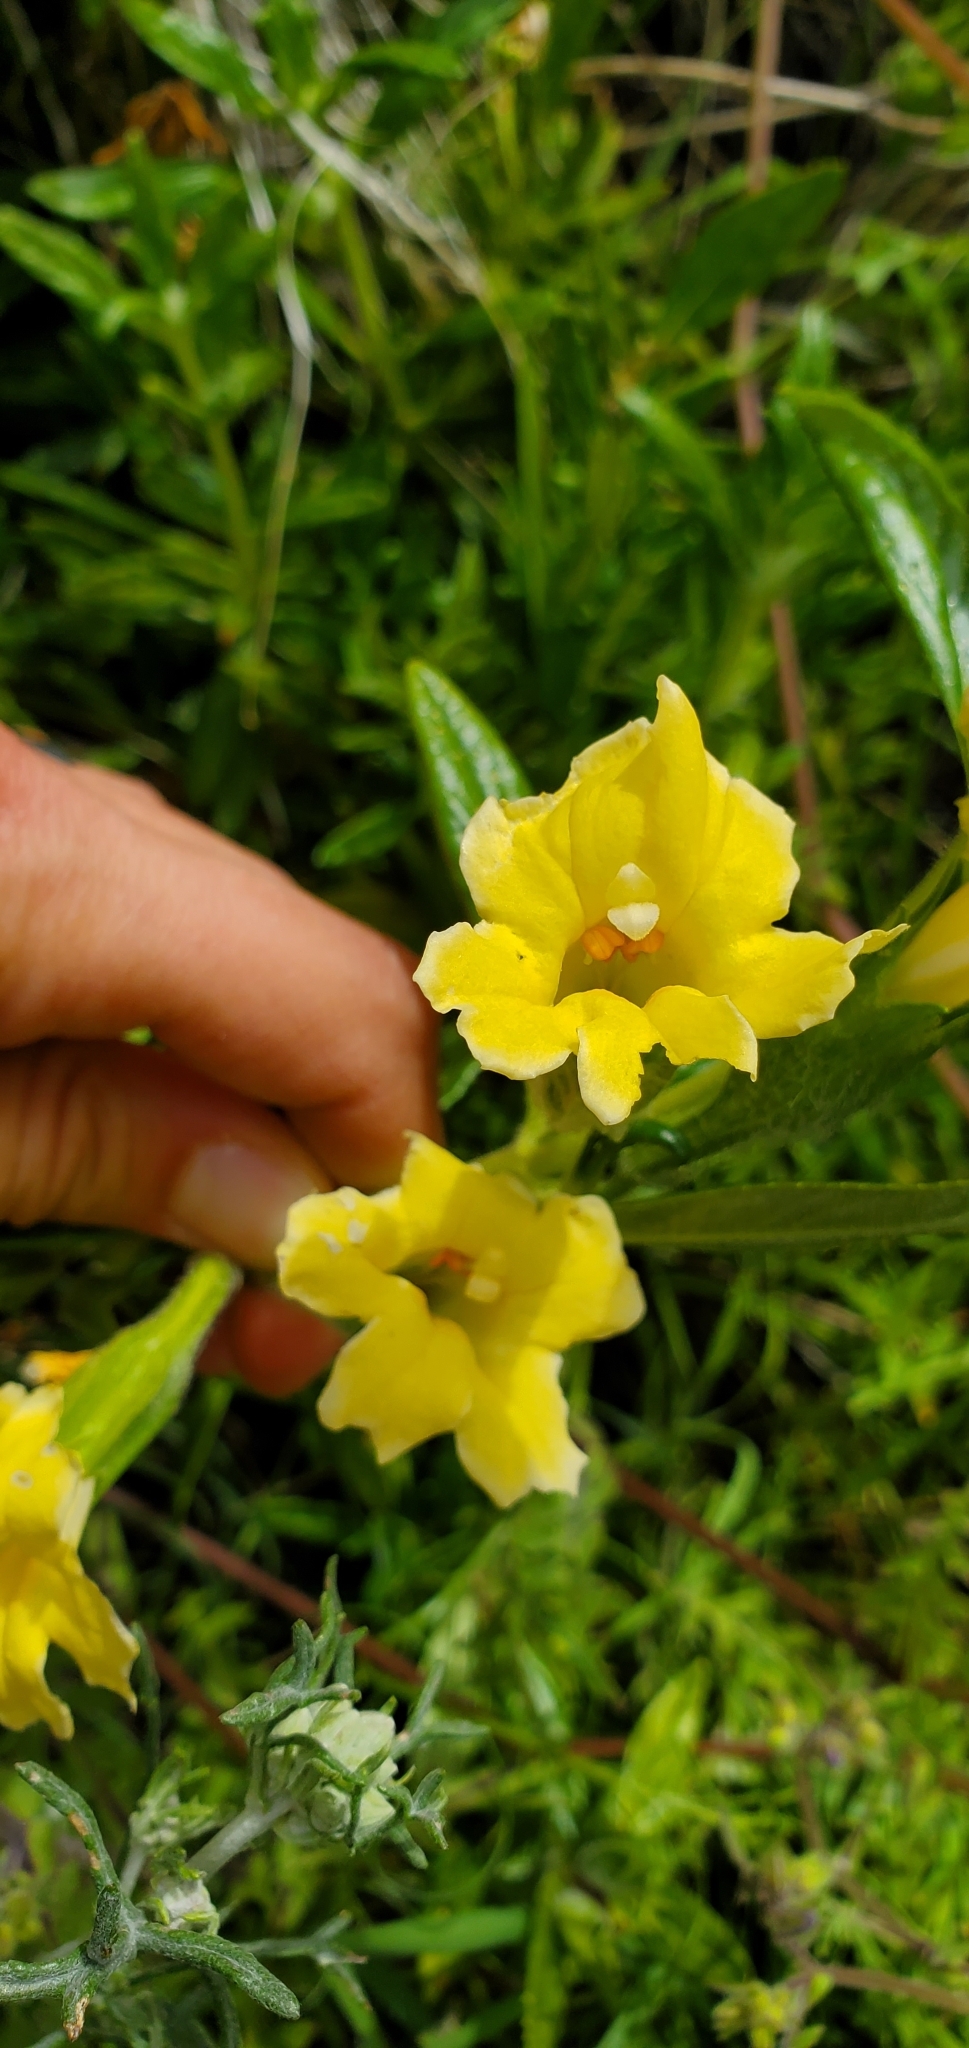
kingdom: Plantae
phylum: Tracheophyta
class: Magnoliopsida
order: Lamiales
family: Phrymaceae
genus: Diplacus
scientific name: Diplacus calycinus
